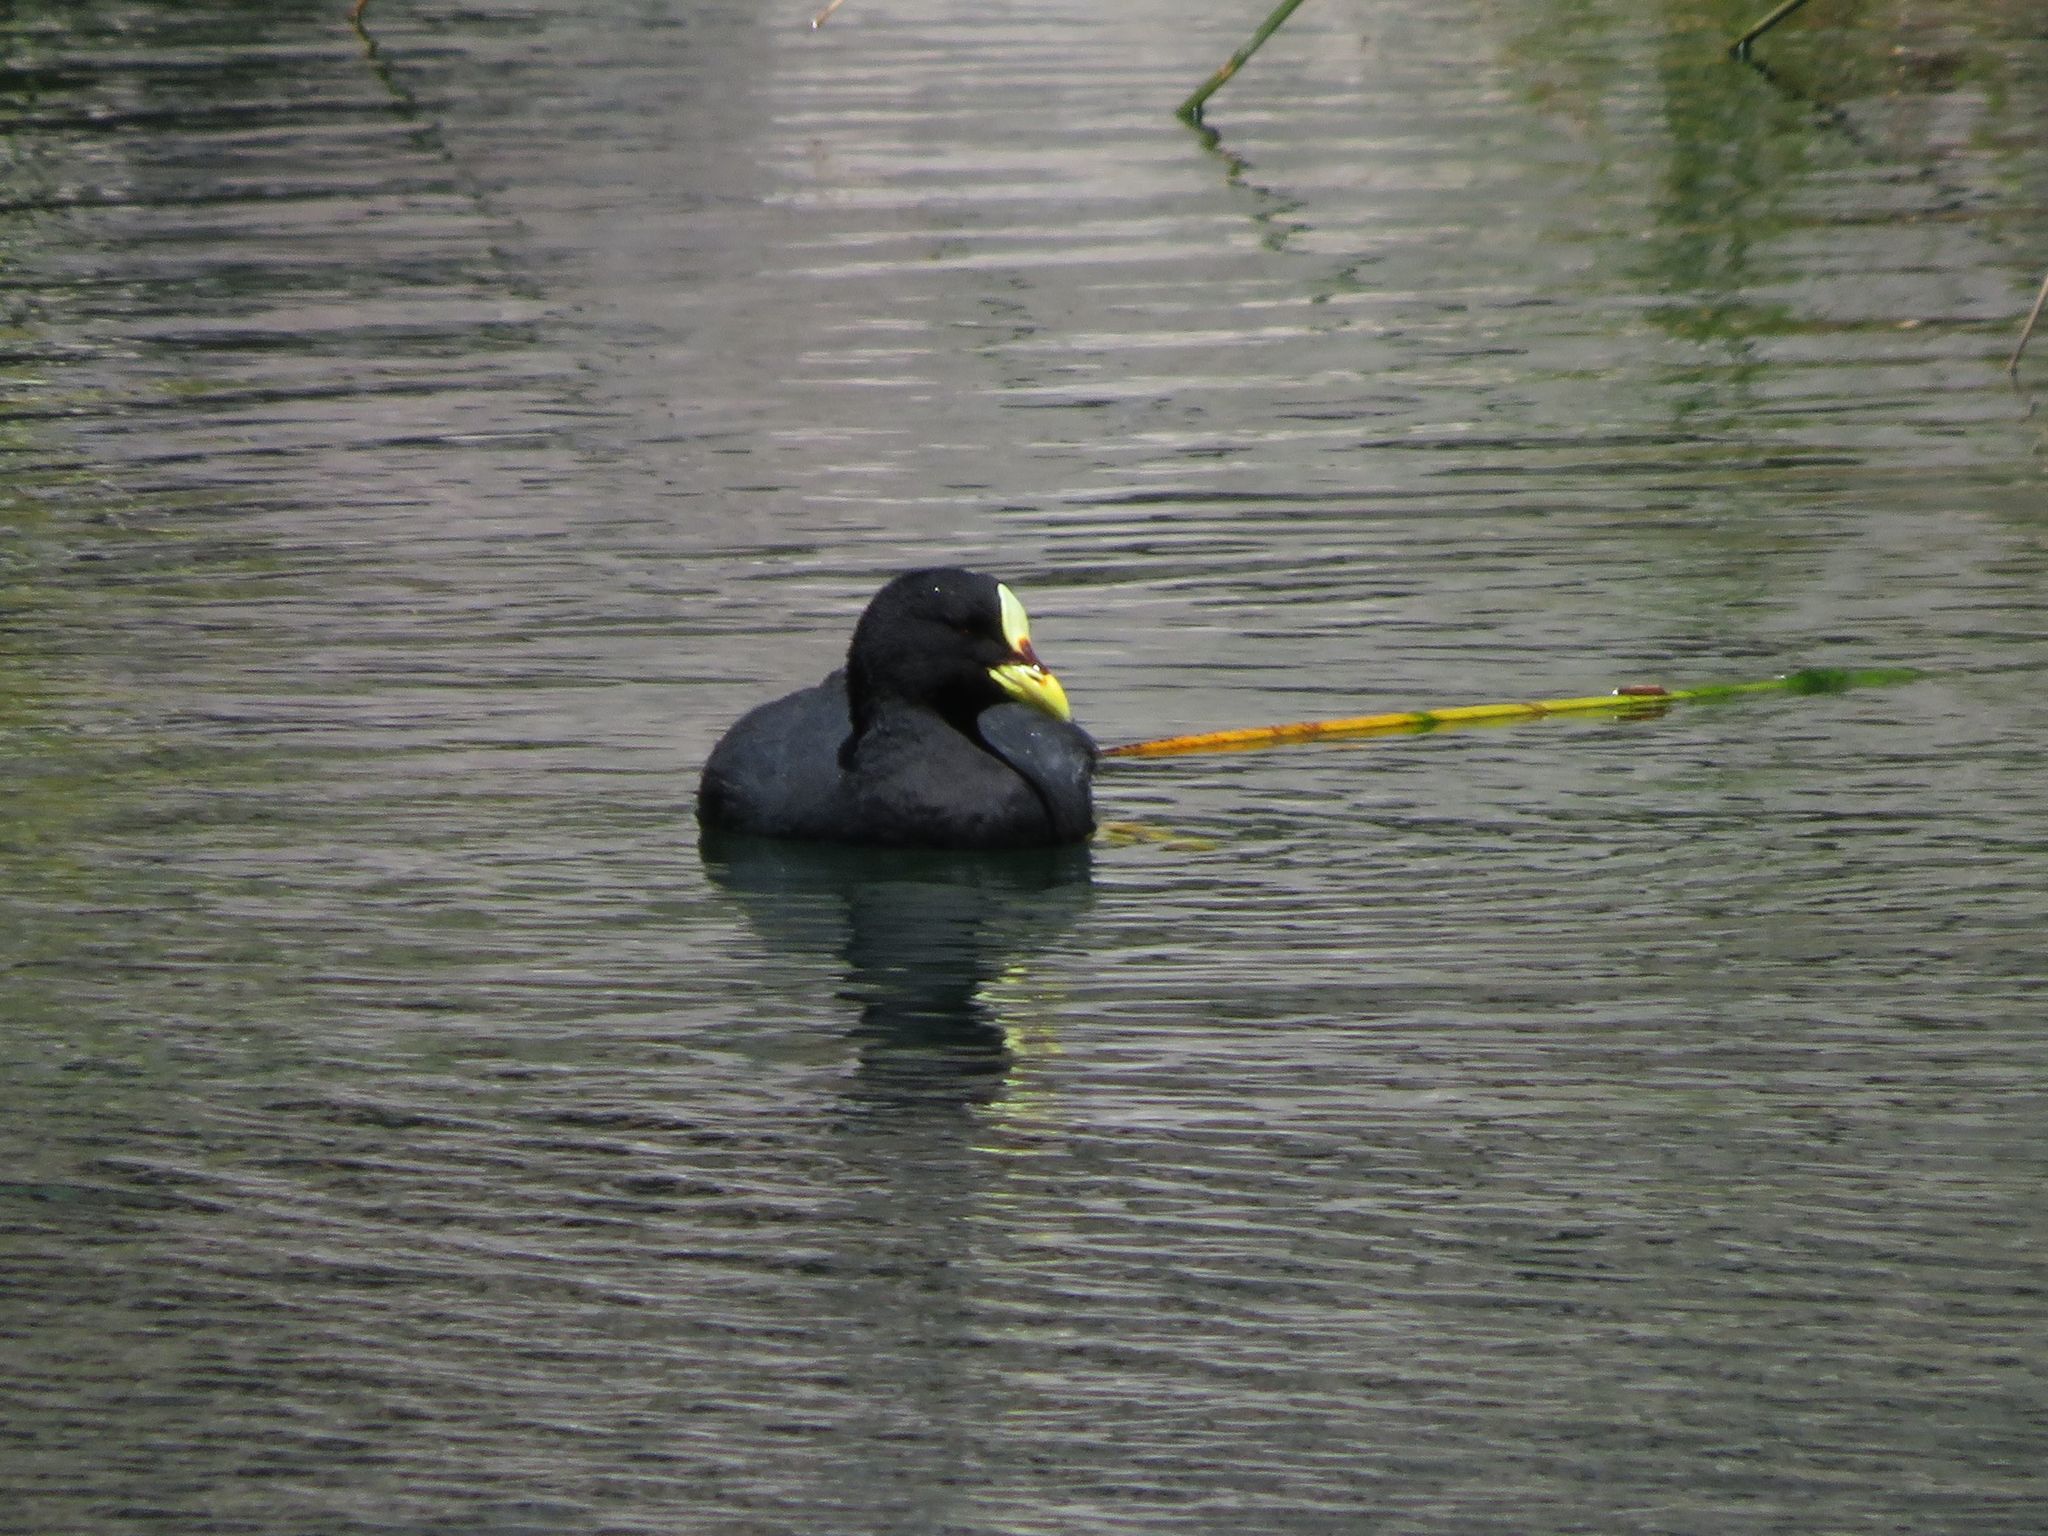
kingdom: Animalia
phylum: Chordata
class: Aves
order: Gruiformes
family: Rallidae
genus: Fulica
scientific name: Fulica armillata
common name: Red-gartered coot
